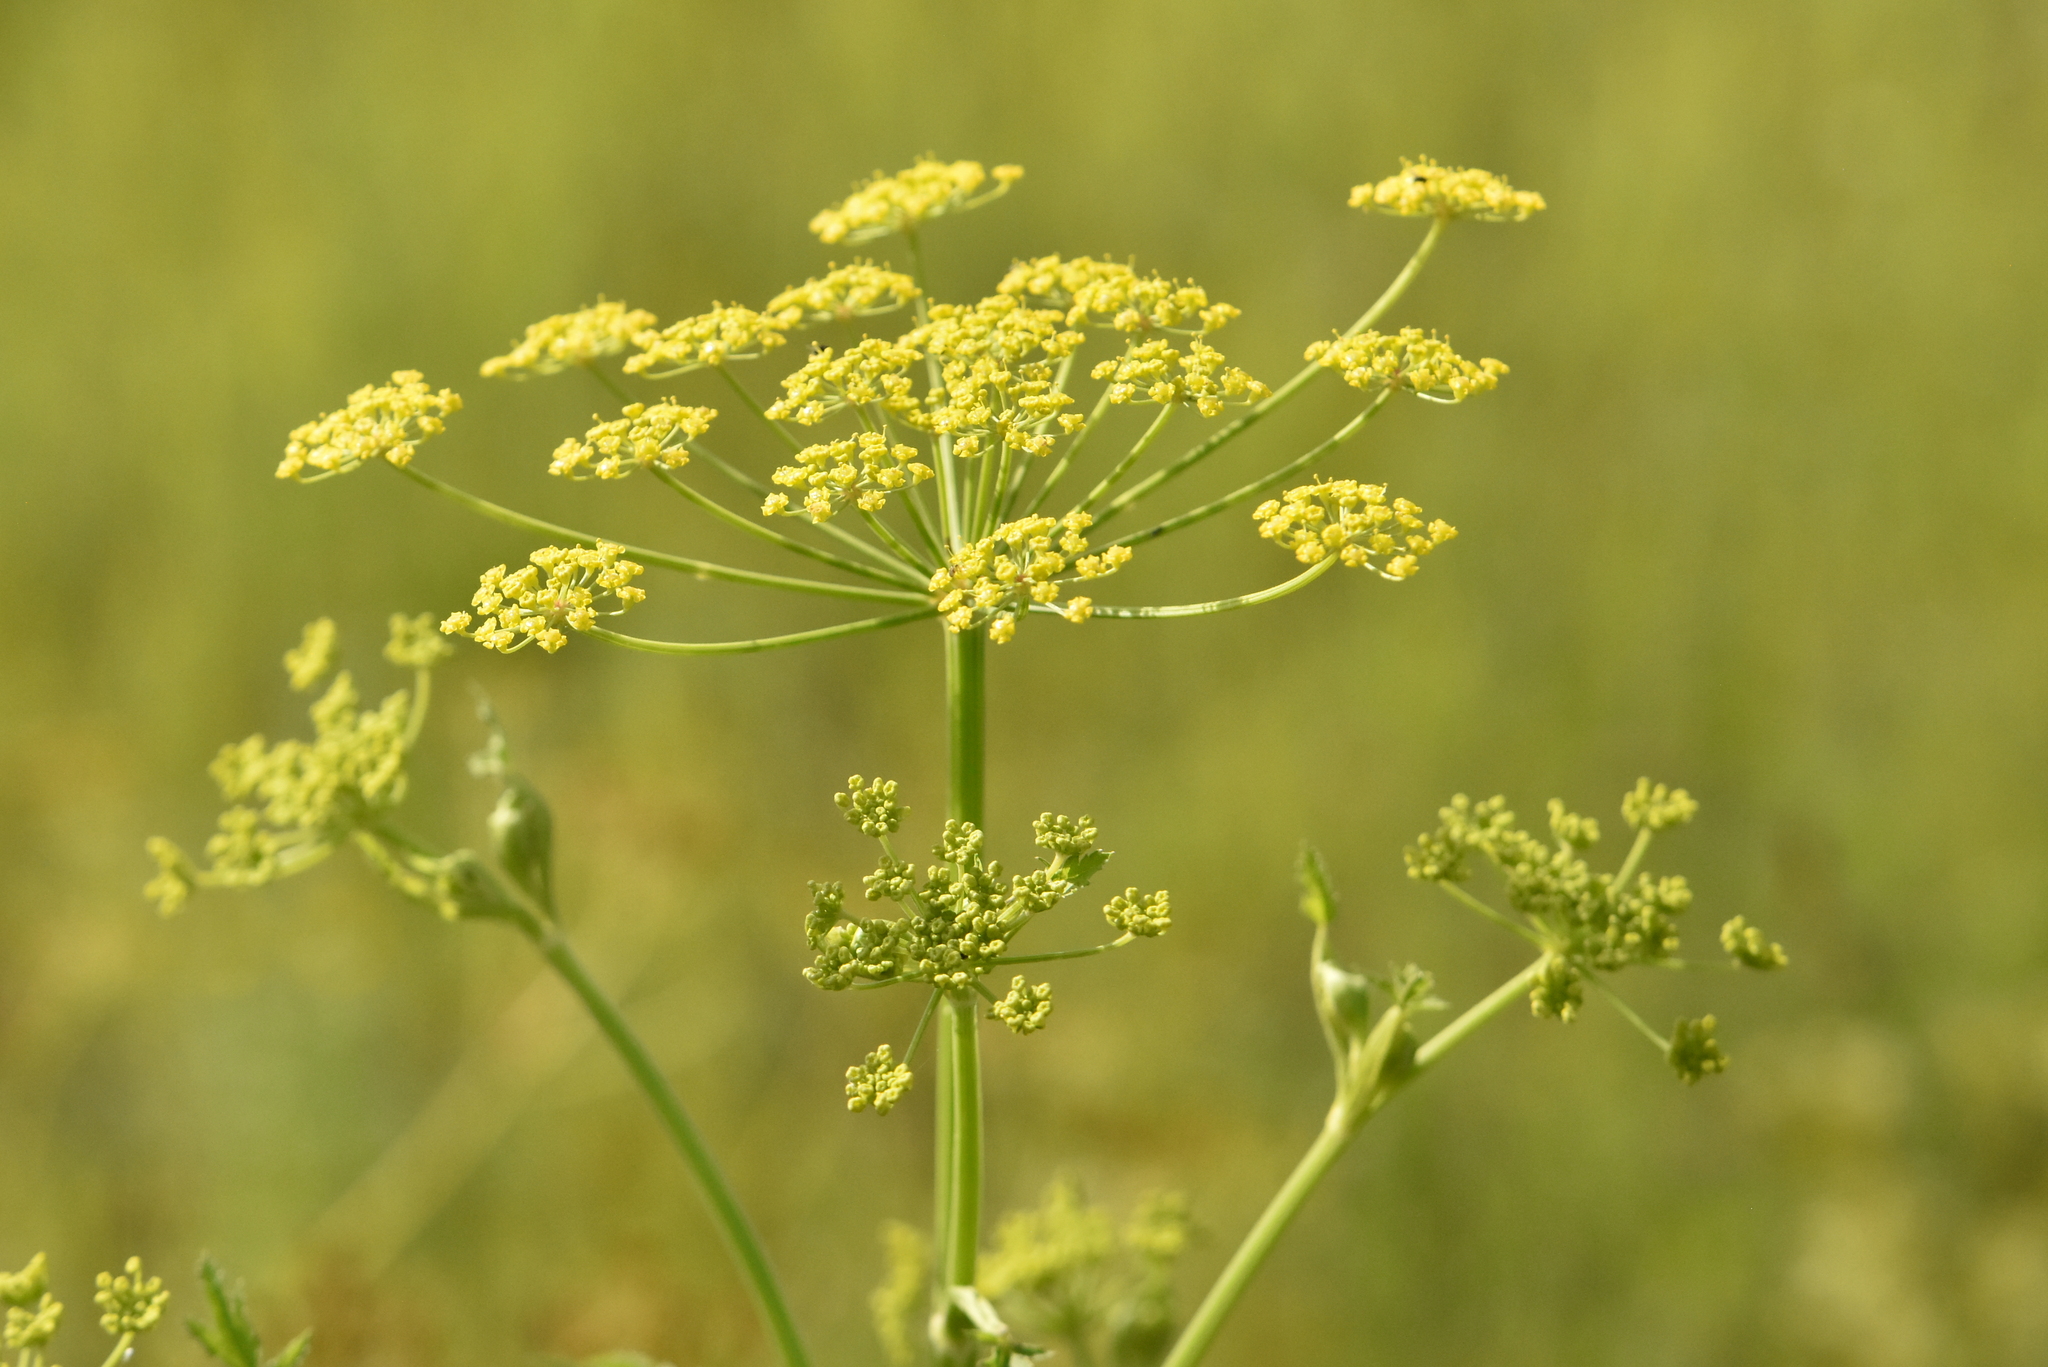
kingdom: Plantae
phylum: Tracheophyta
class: Magnoliopsida
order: Apiales
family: Apiaceae
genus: Pastinaca
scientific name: Pastinaca sativa
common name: Wild parsnip
